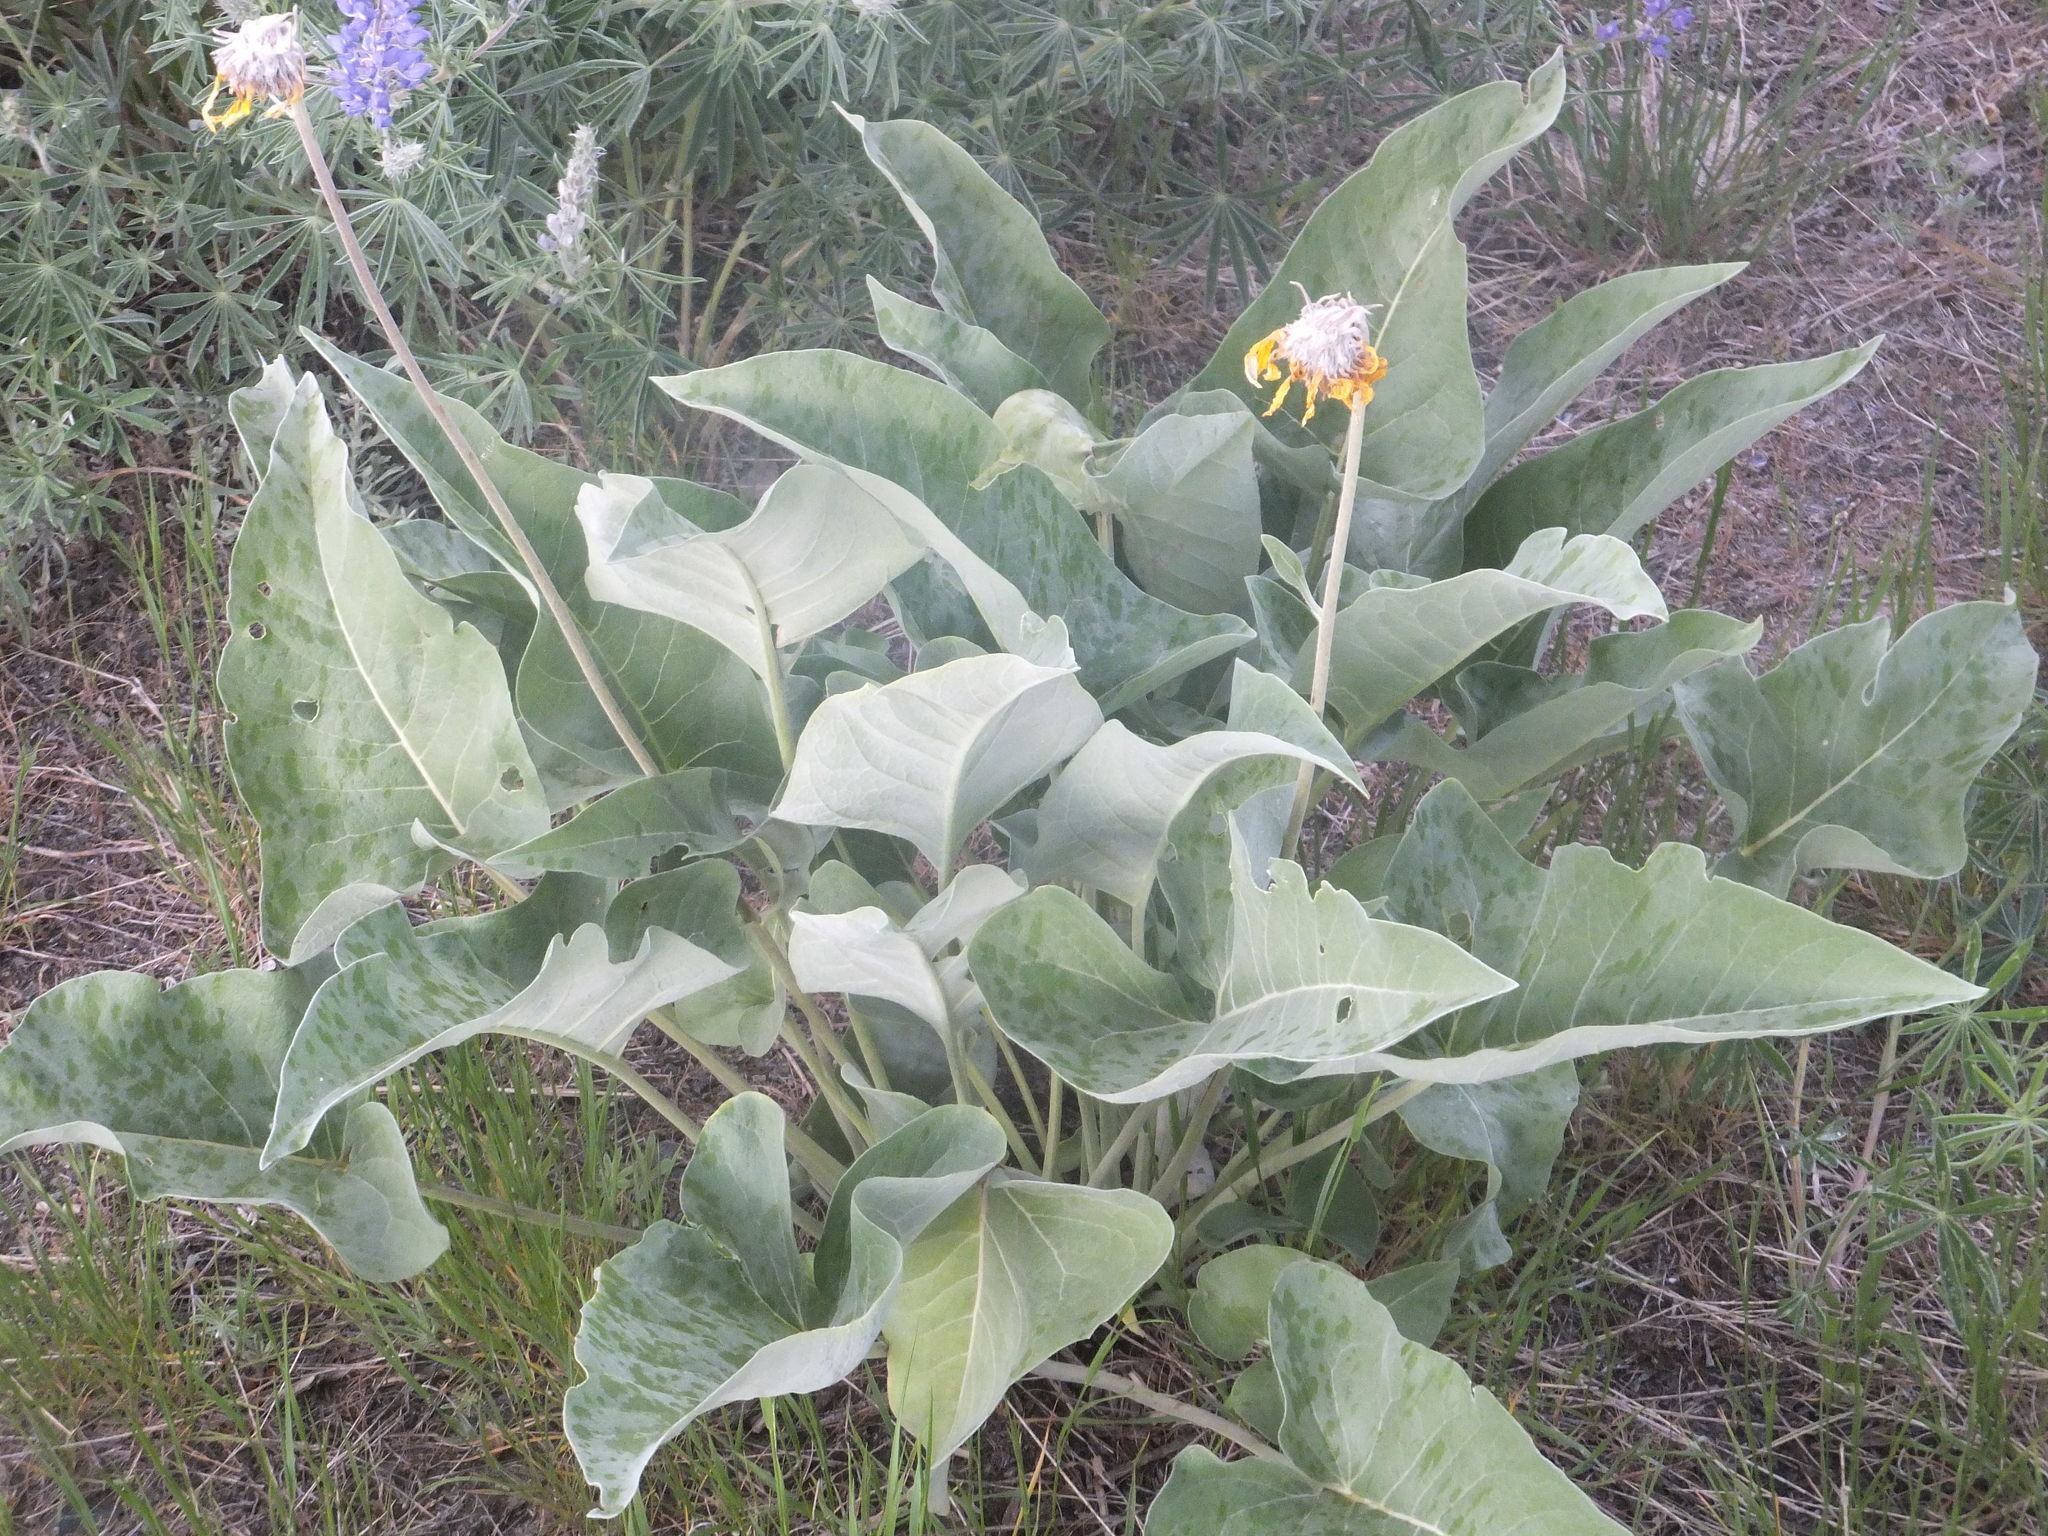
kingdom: Plantae
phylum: Tracheophyta
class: Magnoliopsida
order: Asterales
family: Asteraceae
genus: Wyethia
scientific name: Wyethia sagittata
